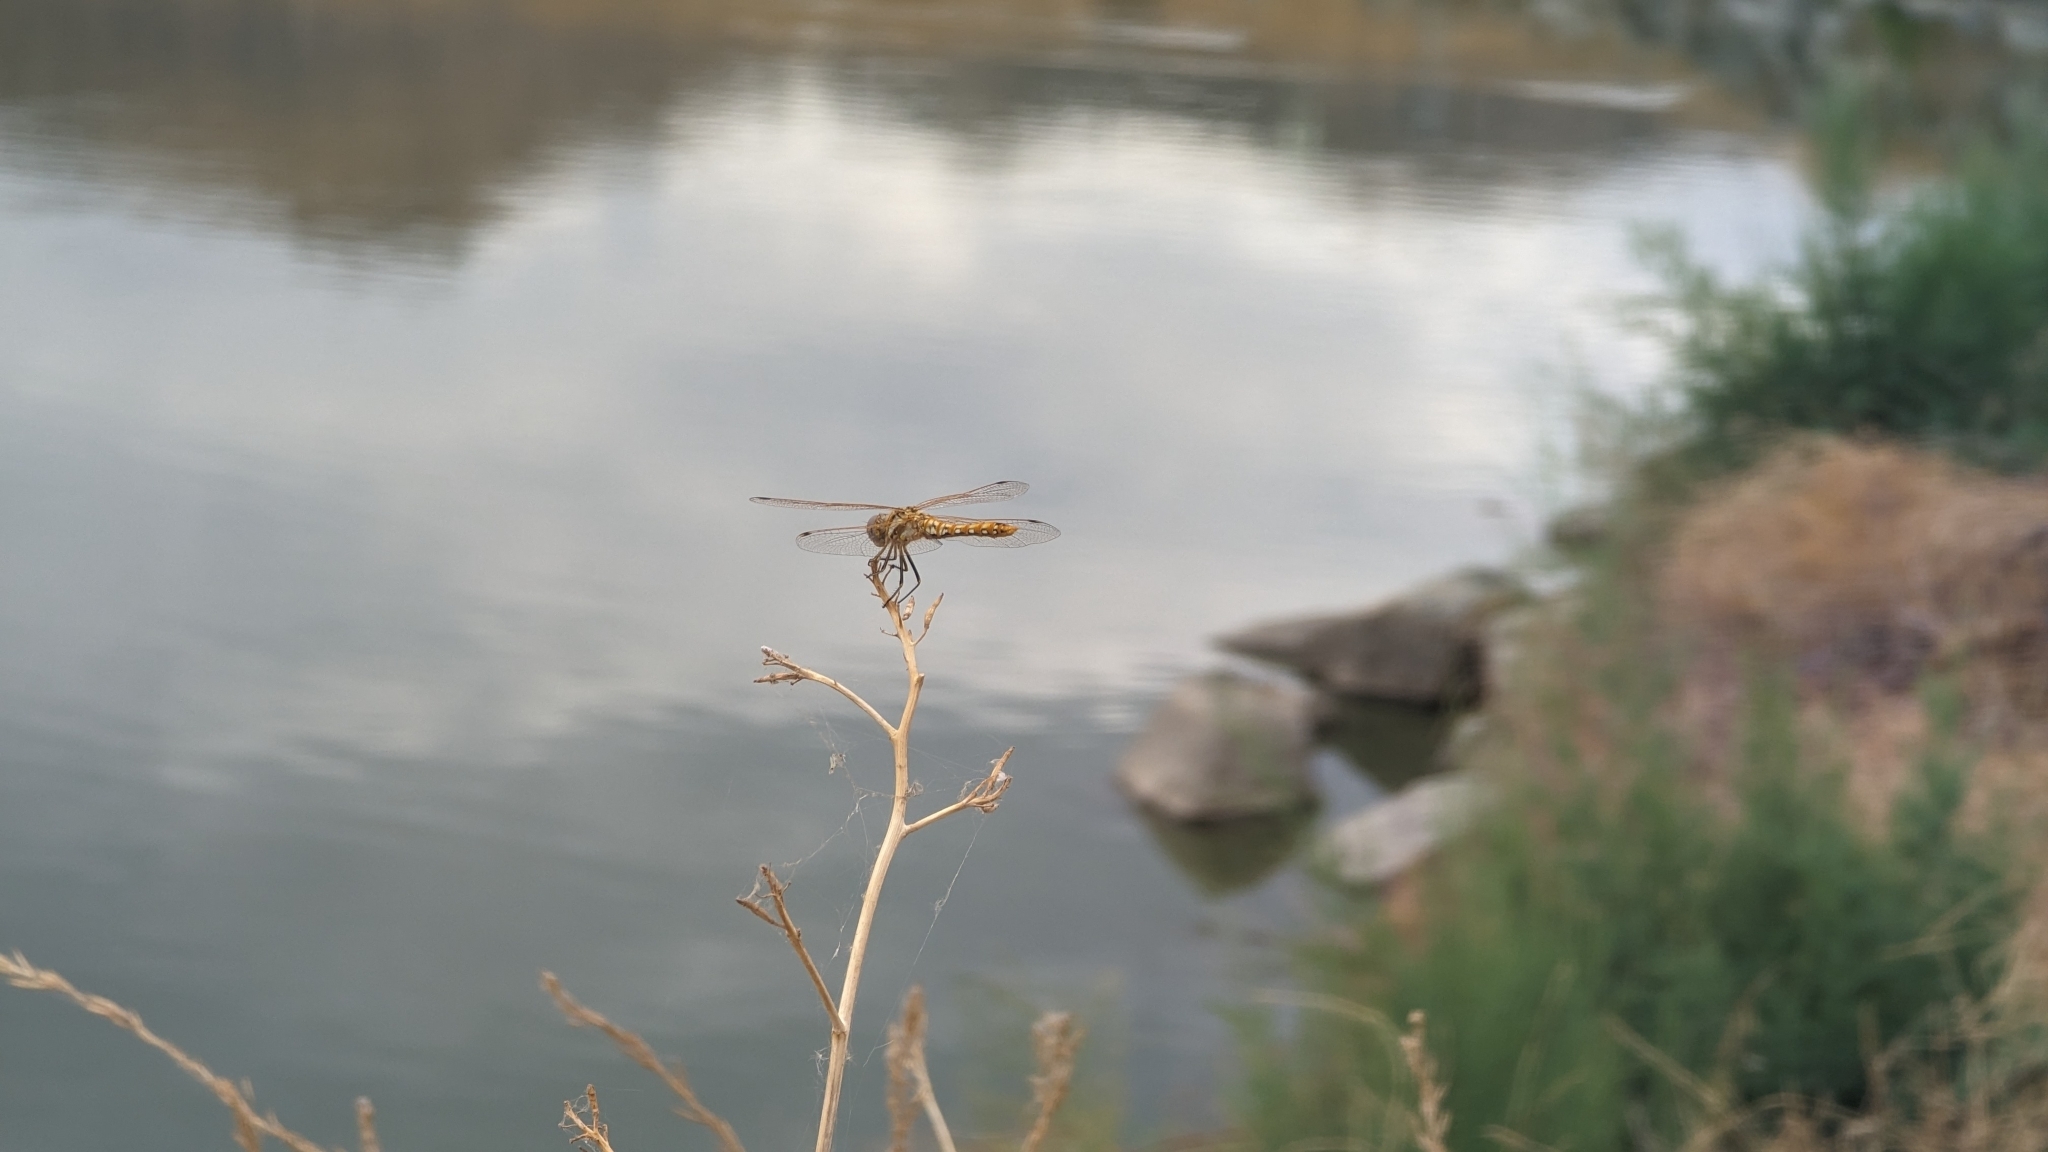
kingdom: Animalia
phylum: Arthropoda
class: Insecta
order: Odonata
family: Libellulidae
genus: Sympetrum
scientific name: Sympetrum corruptum
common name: Variegated meadowhawk
